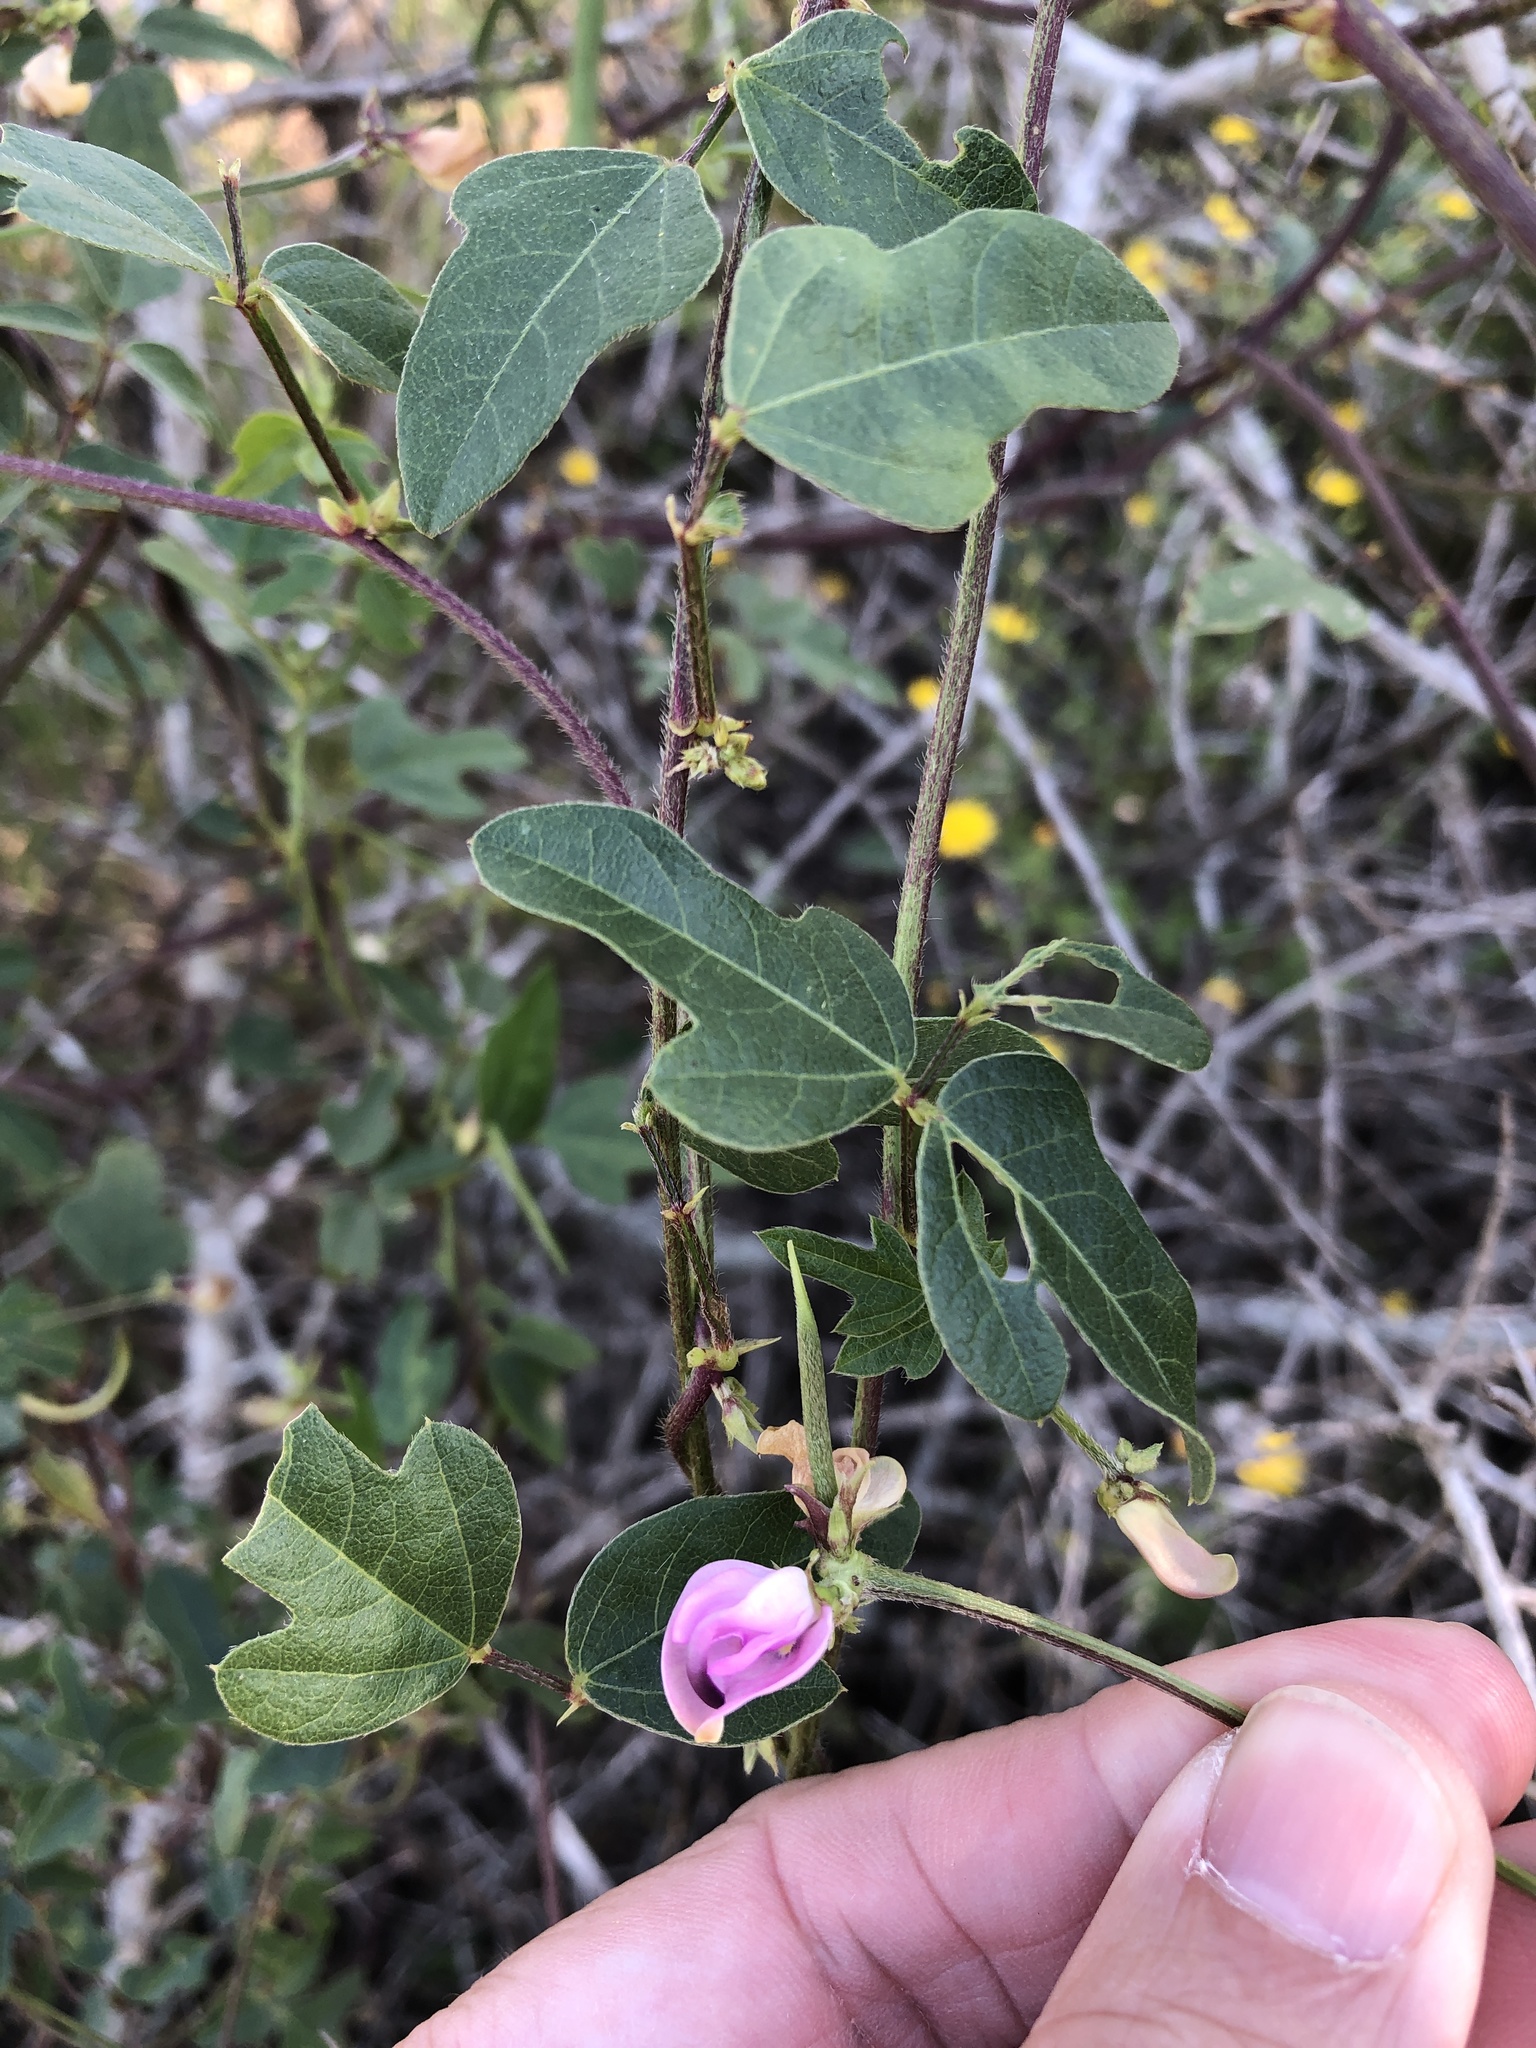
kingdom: Plantae
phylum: Tracheophyta
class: Magnoliopsida
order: Fabales
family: Fabaceae
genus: Strophostyles
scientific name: Strophostyles helvola
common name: Trailing wild bean
